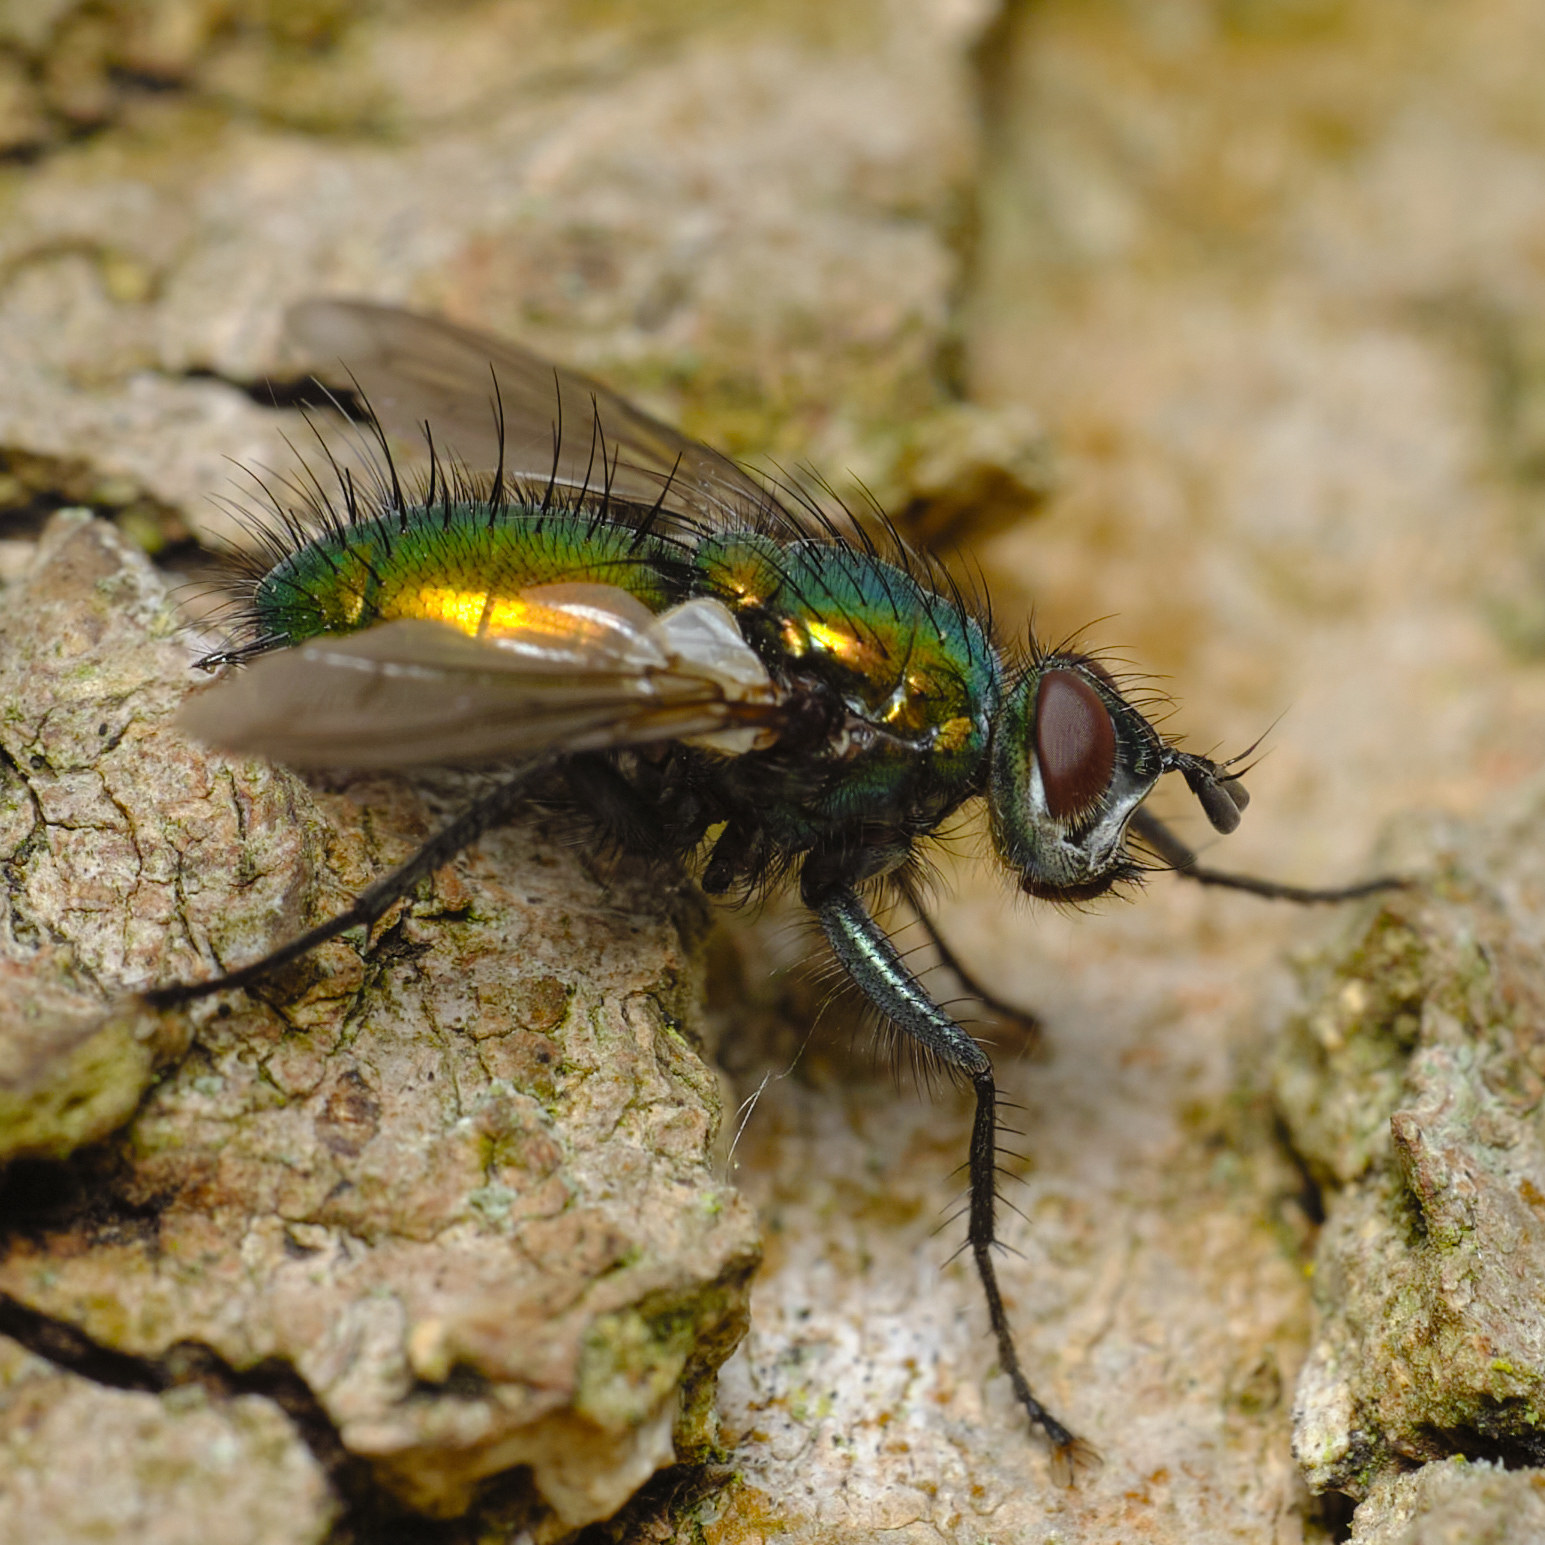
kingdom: Animalia
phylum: Arthropoda
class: Insecta
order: Diptera
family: Tachinidae
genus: Gymnocheta
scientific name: Gymnocheta viridis
